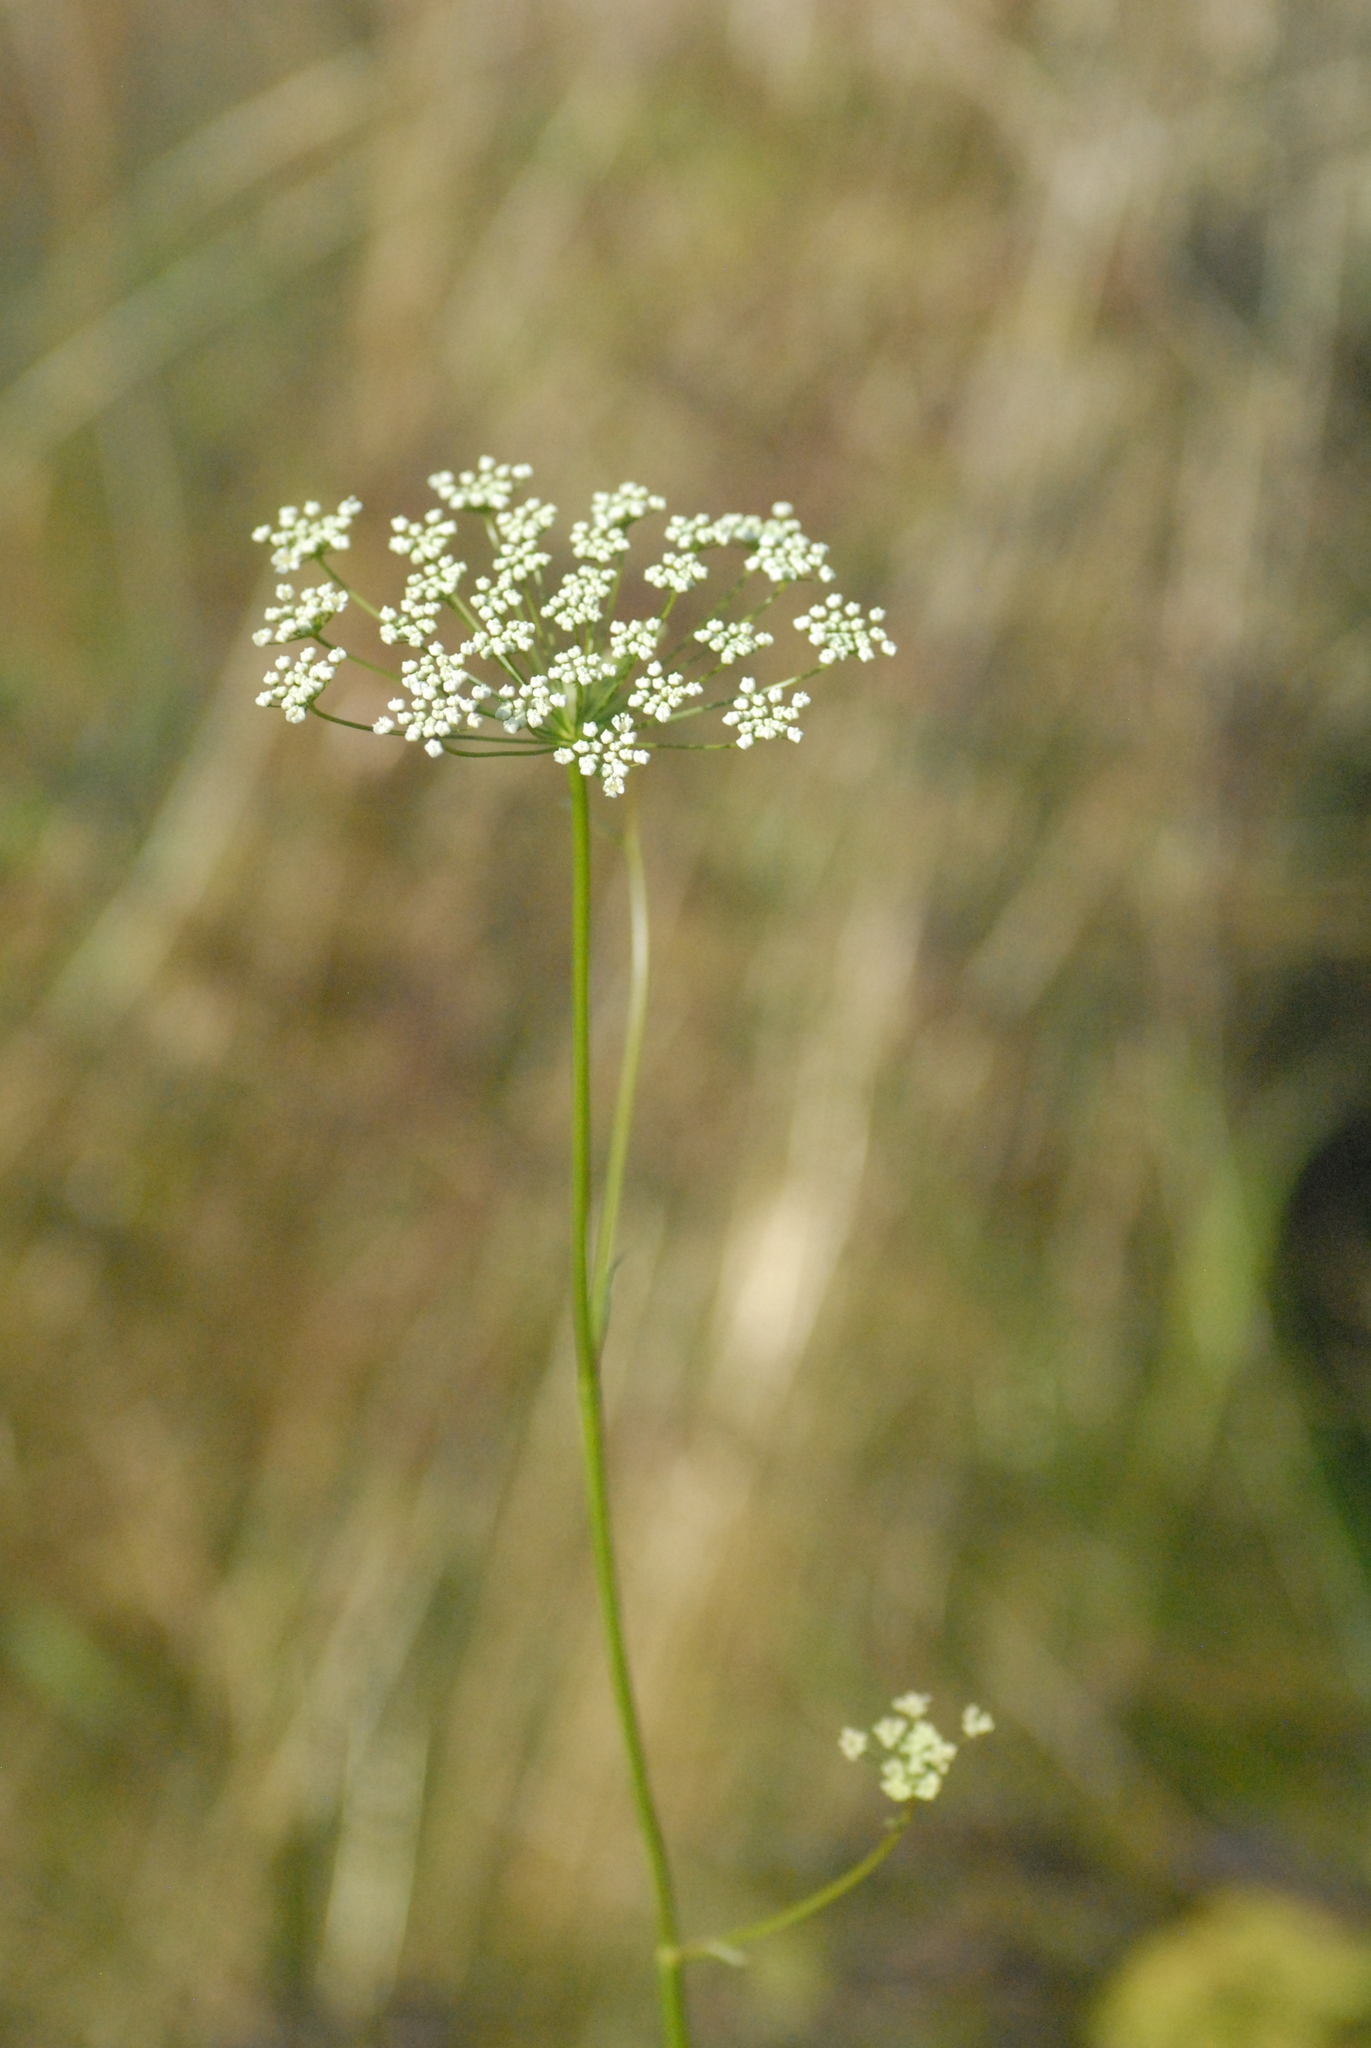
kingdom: Plantae
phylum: Tracheophyta
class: Magnoliopsida
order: Apiales
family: Apiaceae
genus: Pimpinella
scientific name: Pimpinella saxifraga
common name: Burnet-saxifrage
